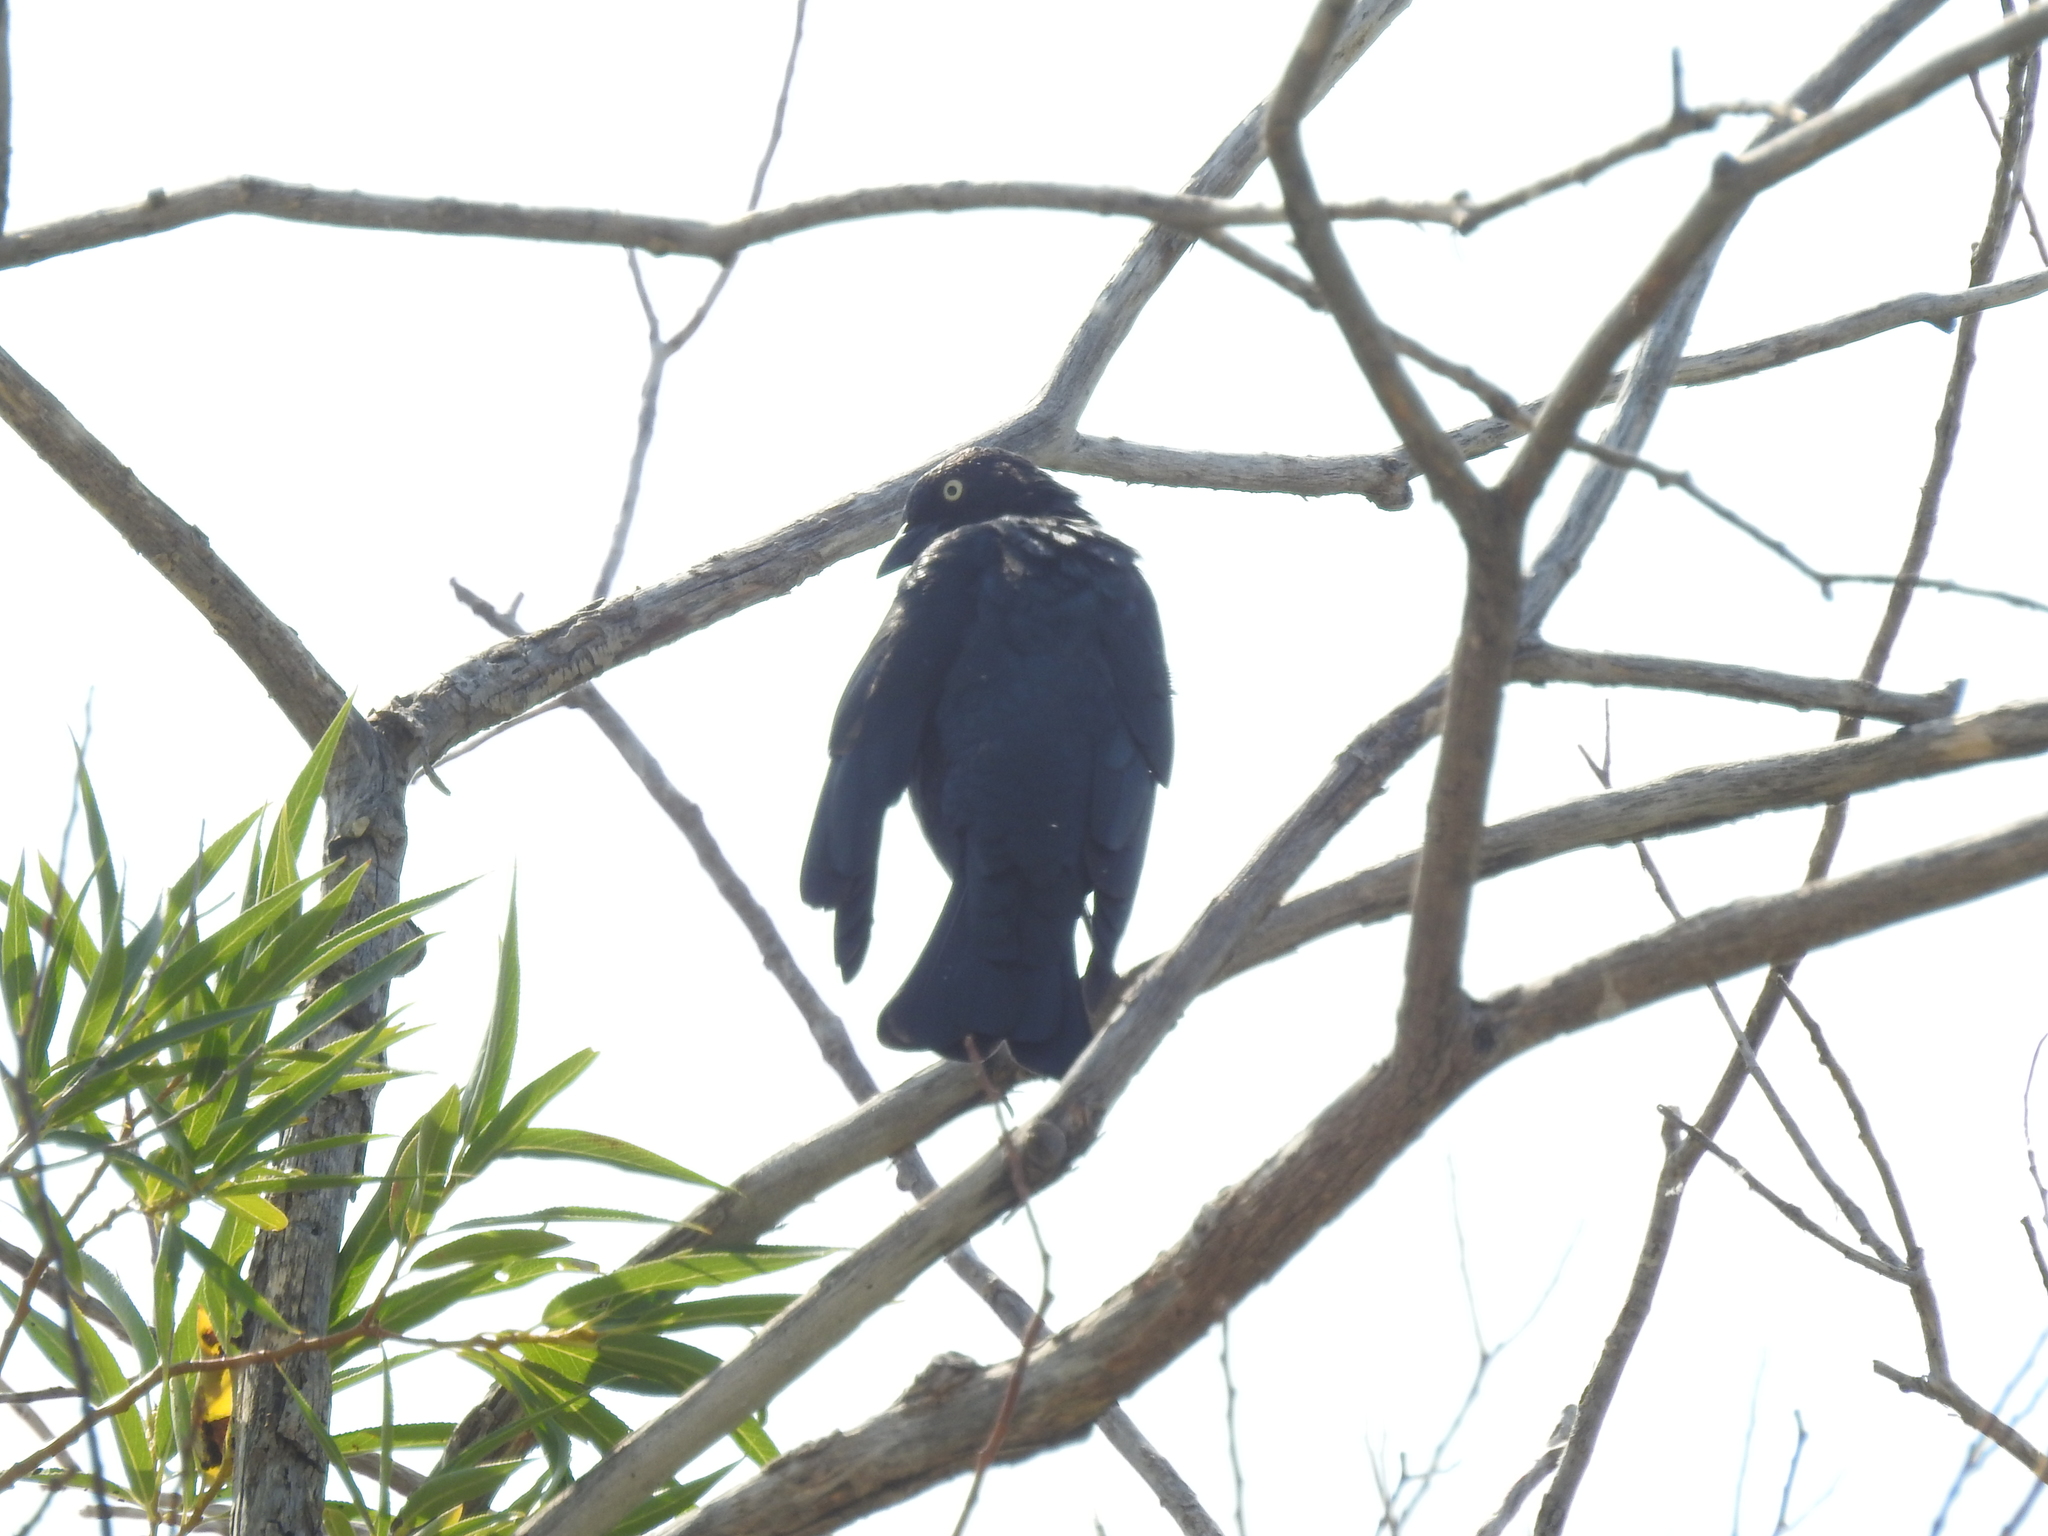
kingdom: Animalia
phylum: Chordata
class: Aves
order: Passeriformes
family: Icteridae
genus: Euphagus
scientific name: Euphagus cyanocephalus
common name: Brewer's blackbird
